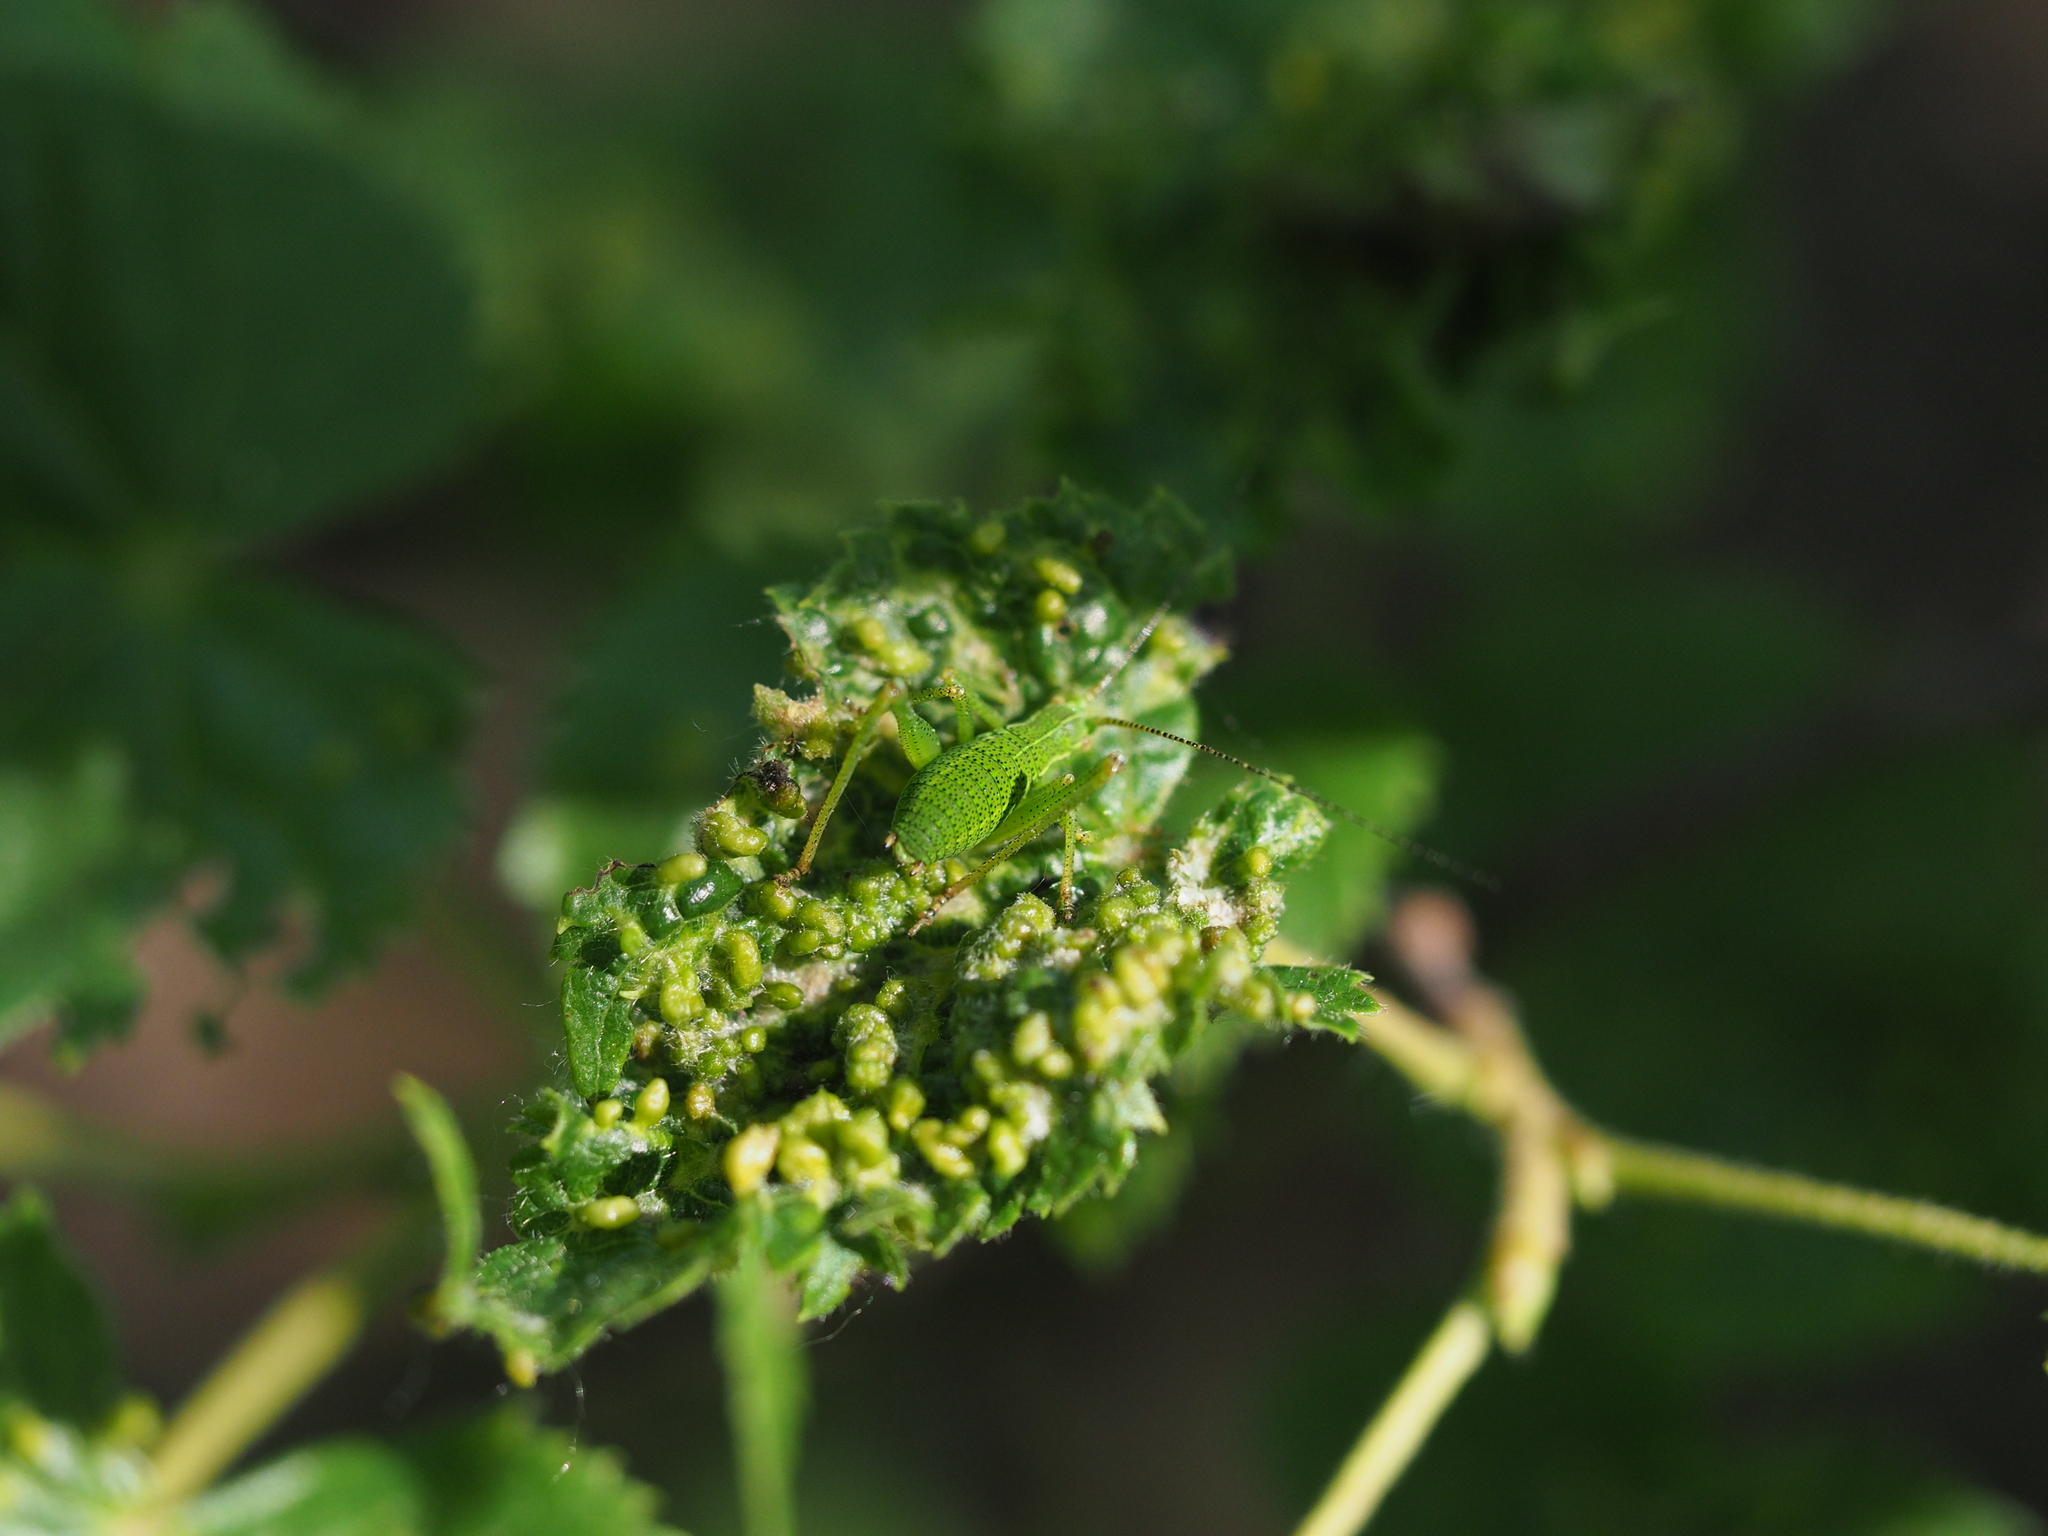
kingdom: Animalia
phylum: Arthropoda
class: Insecta
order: Orthoptera
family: Tettigoniidae
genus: Barbitistes
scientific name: Barbitistes serricauda
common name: Saw-tailed bush-cricket
